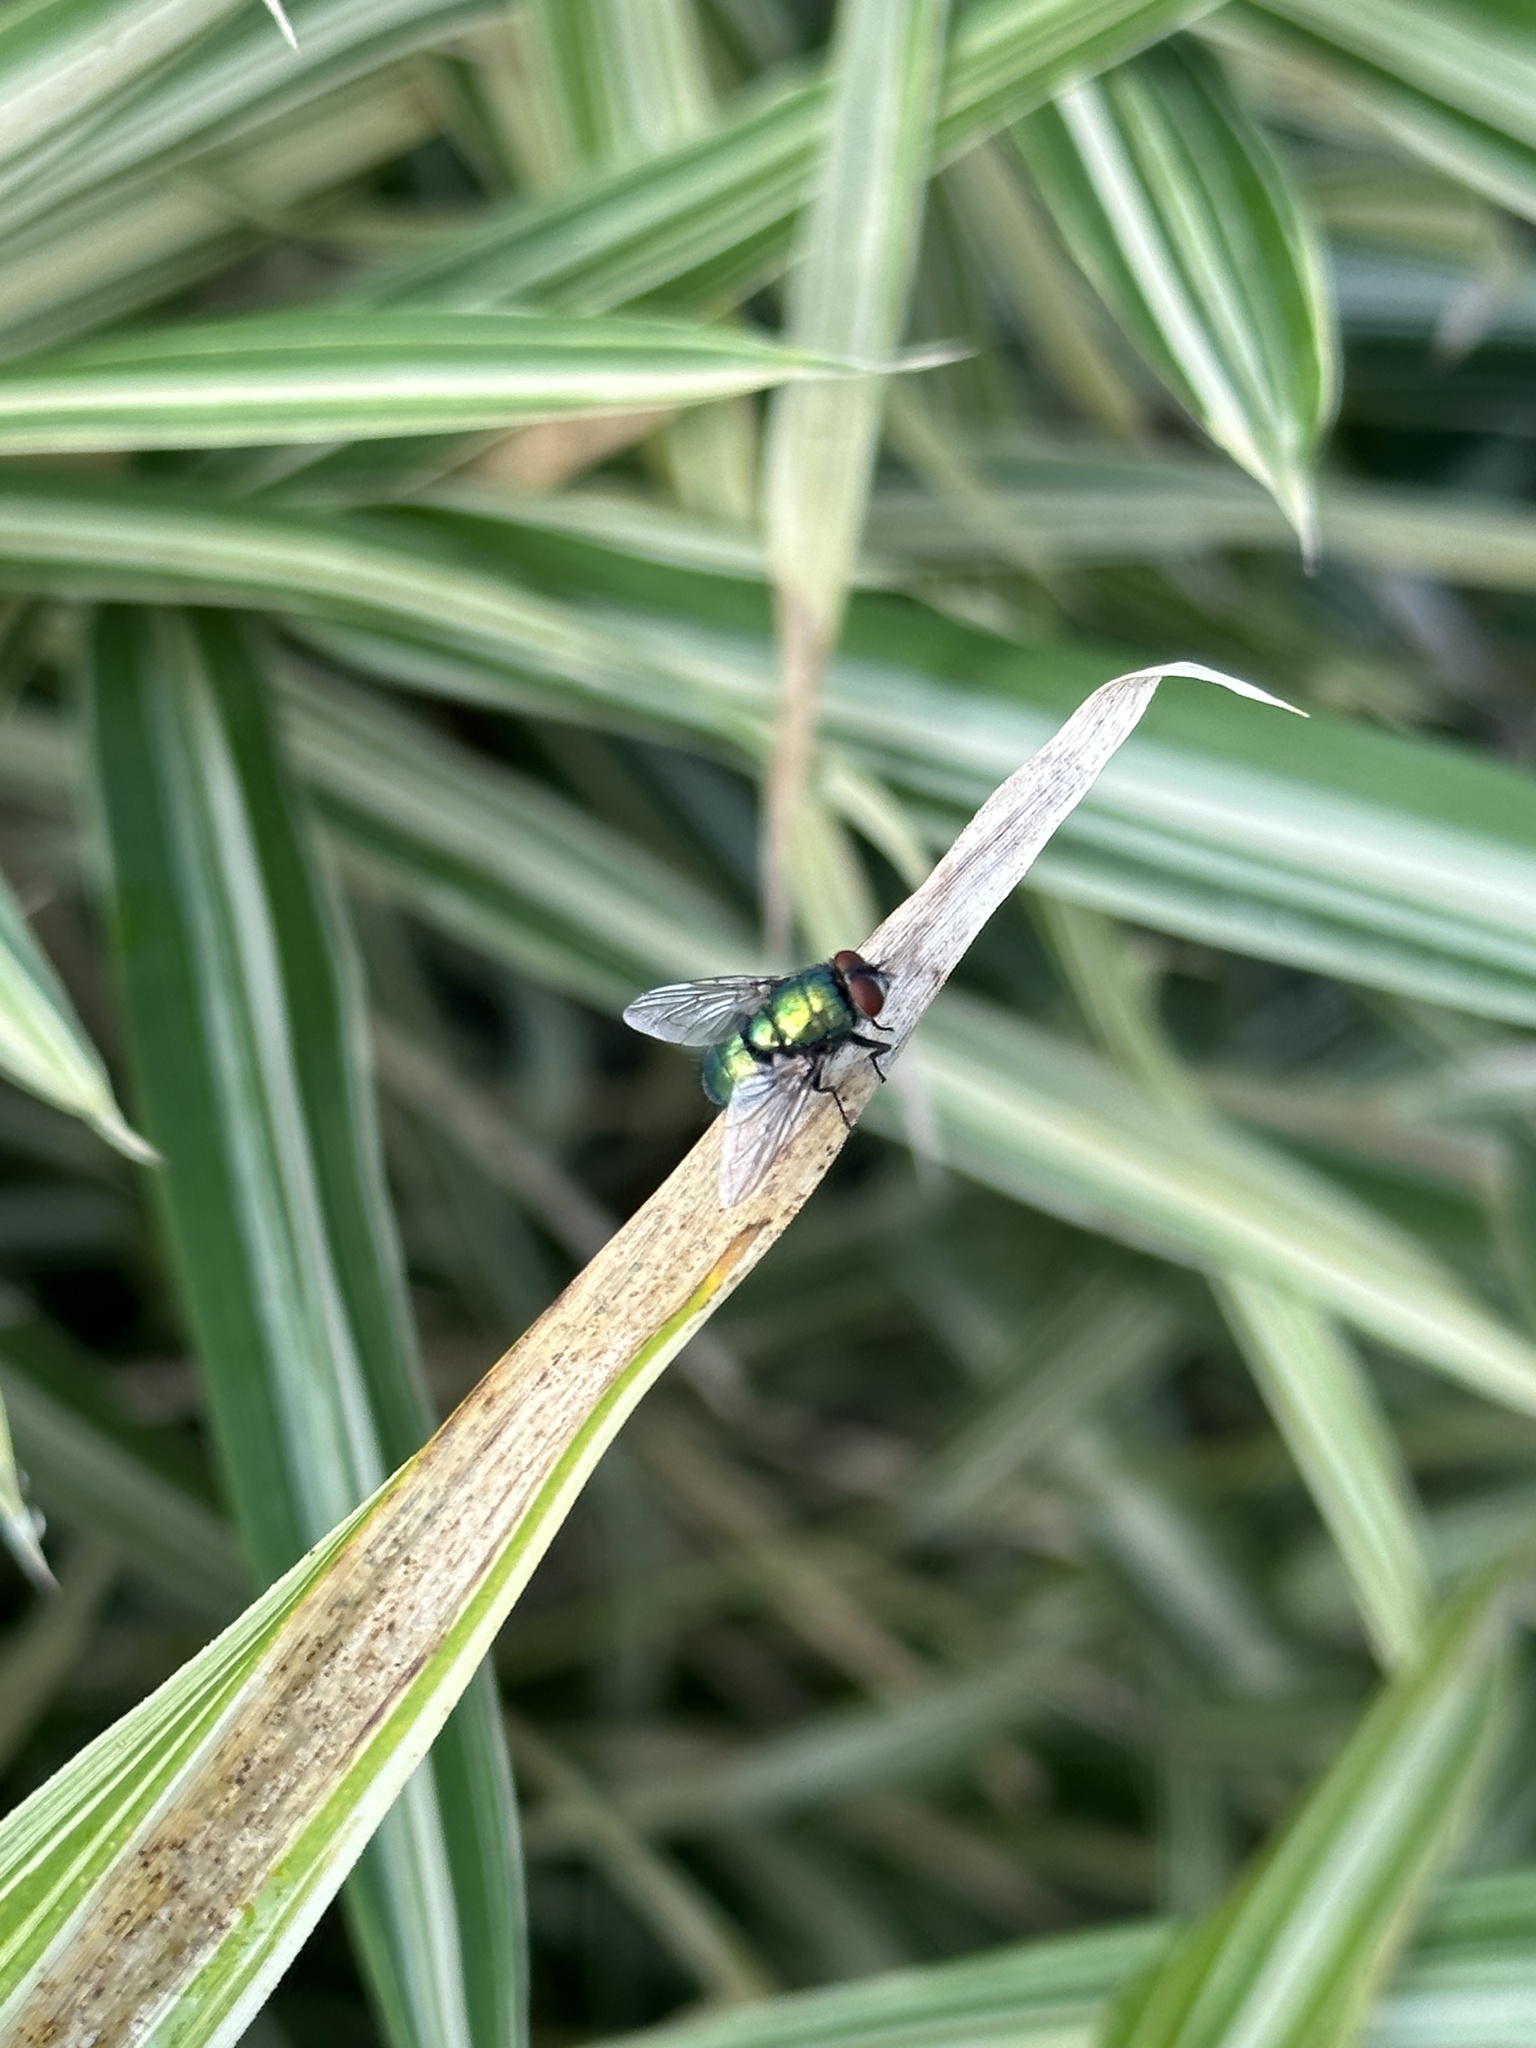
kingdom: Animalia
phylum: Arthropoda
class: Insecta
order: Diptera
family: Calliphoridae
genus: Lucilia
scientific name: Lucilia
